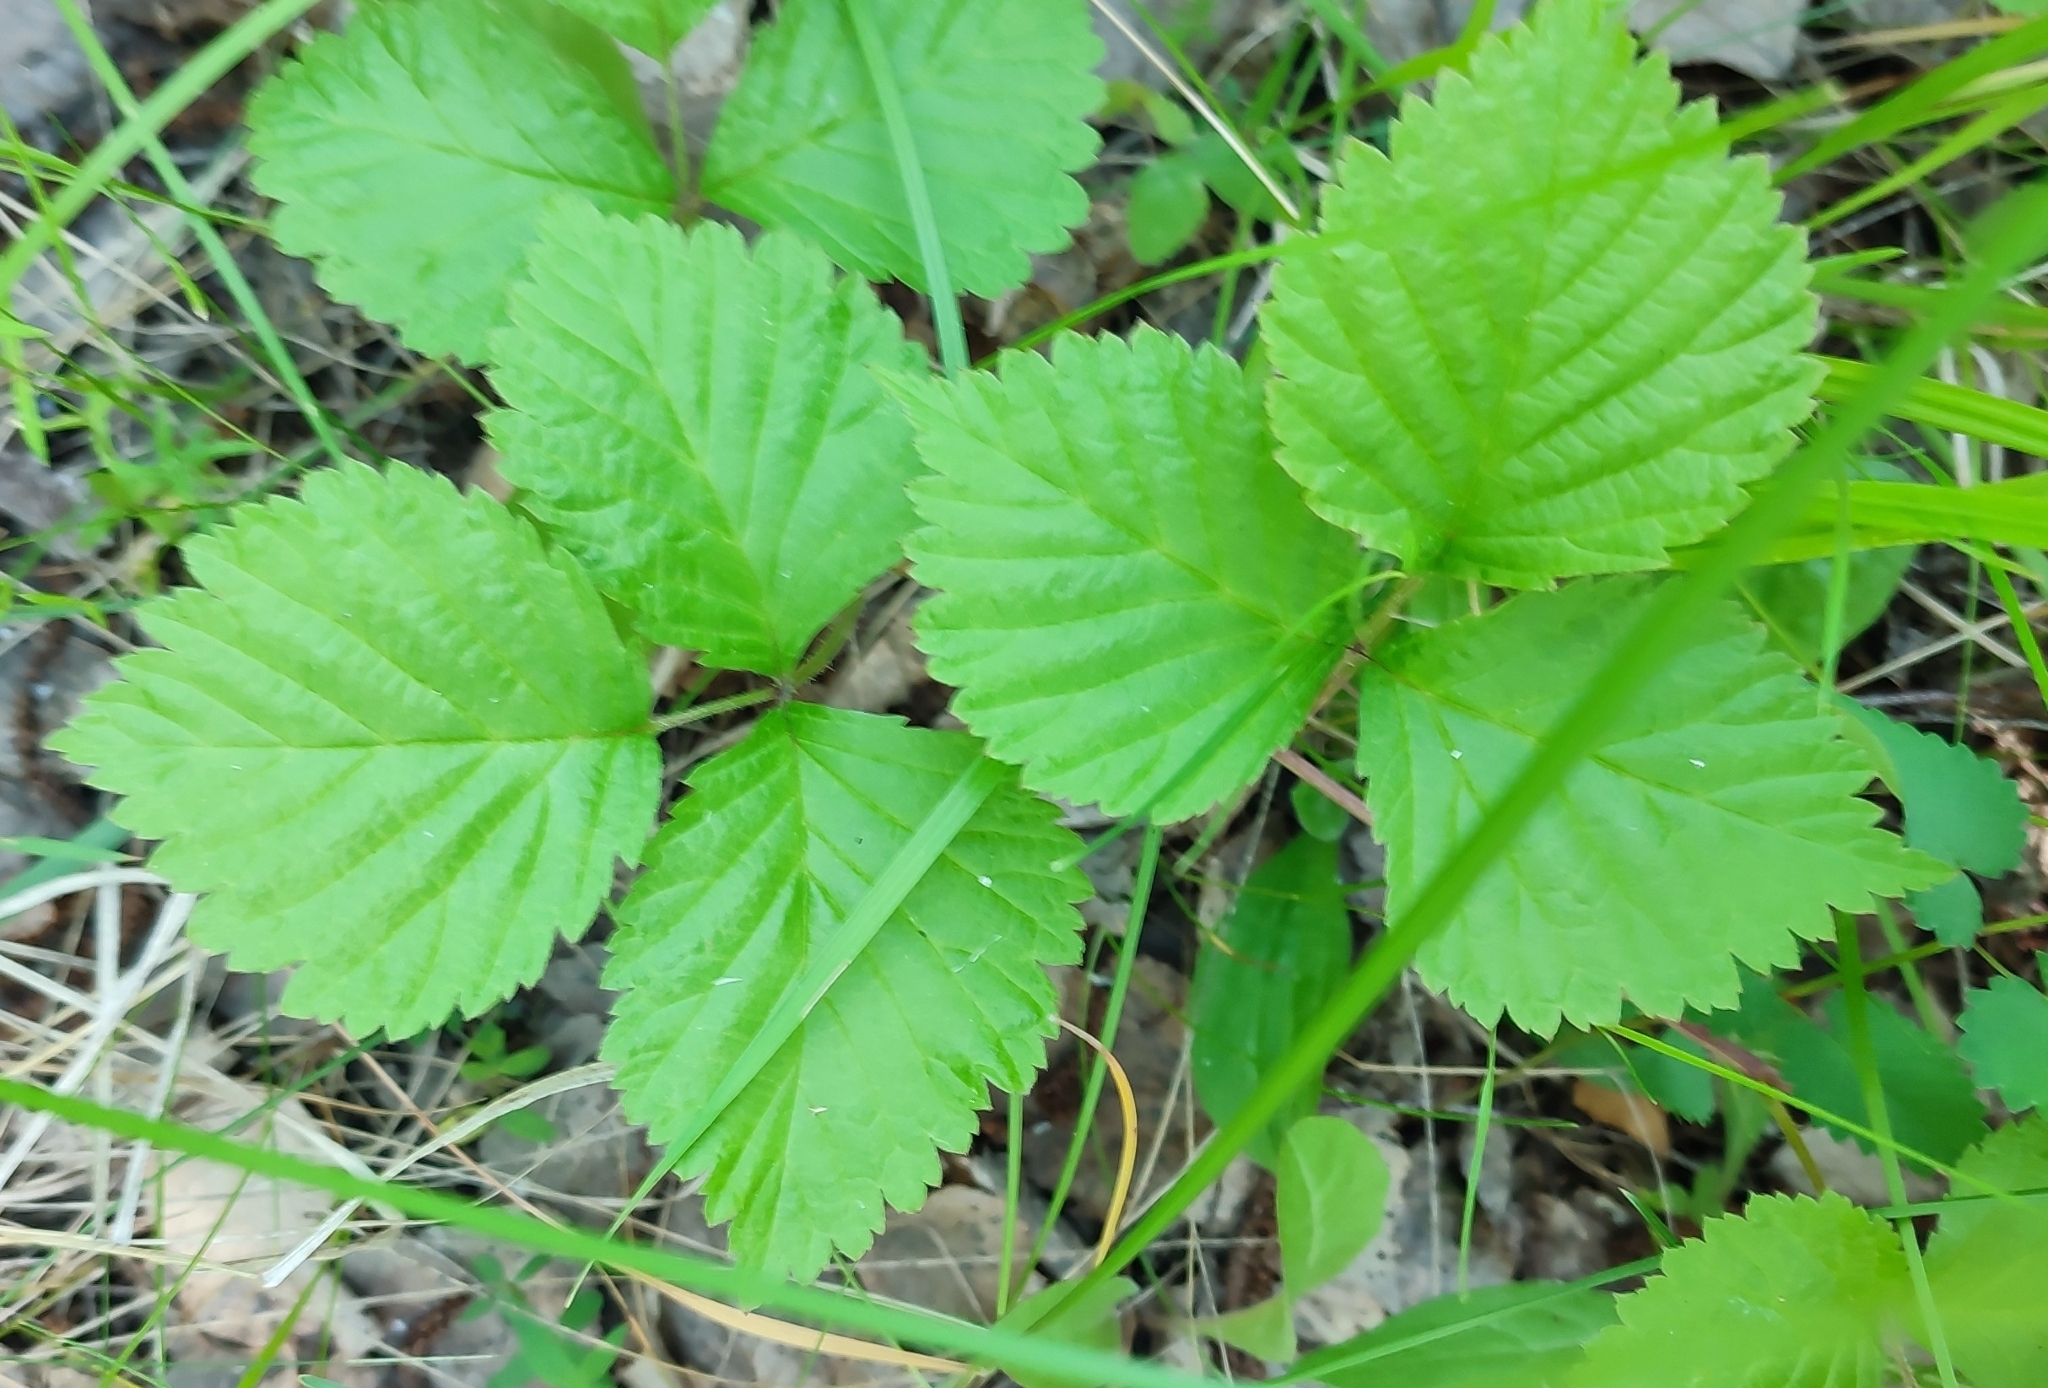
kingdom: Plantae
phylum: Tracheophyta
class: Magnoliopsida
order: Rosales
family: Rosaceae
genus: Rubus
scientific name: Rubus saxatilis
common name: Stone bramble
